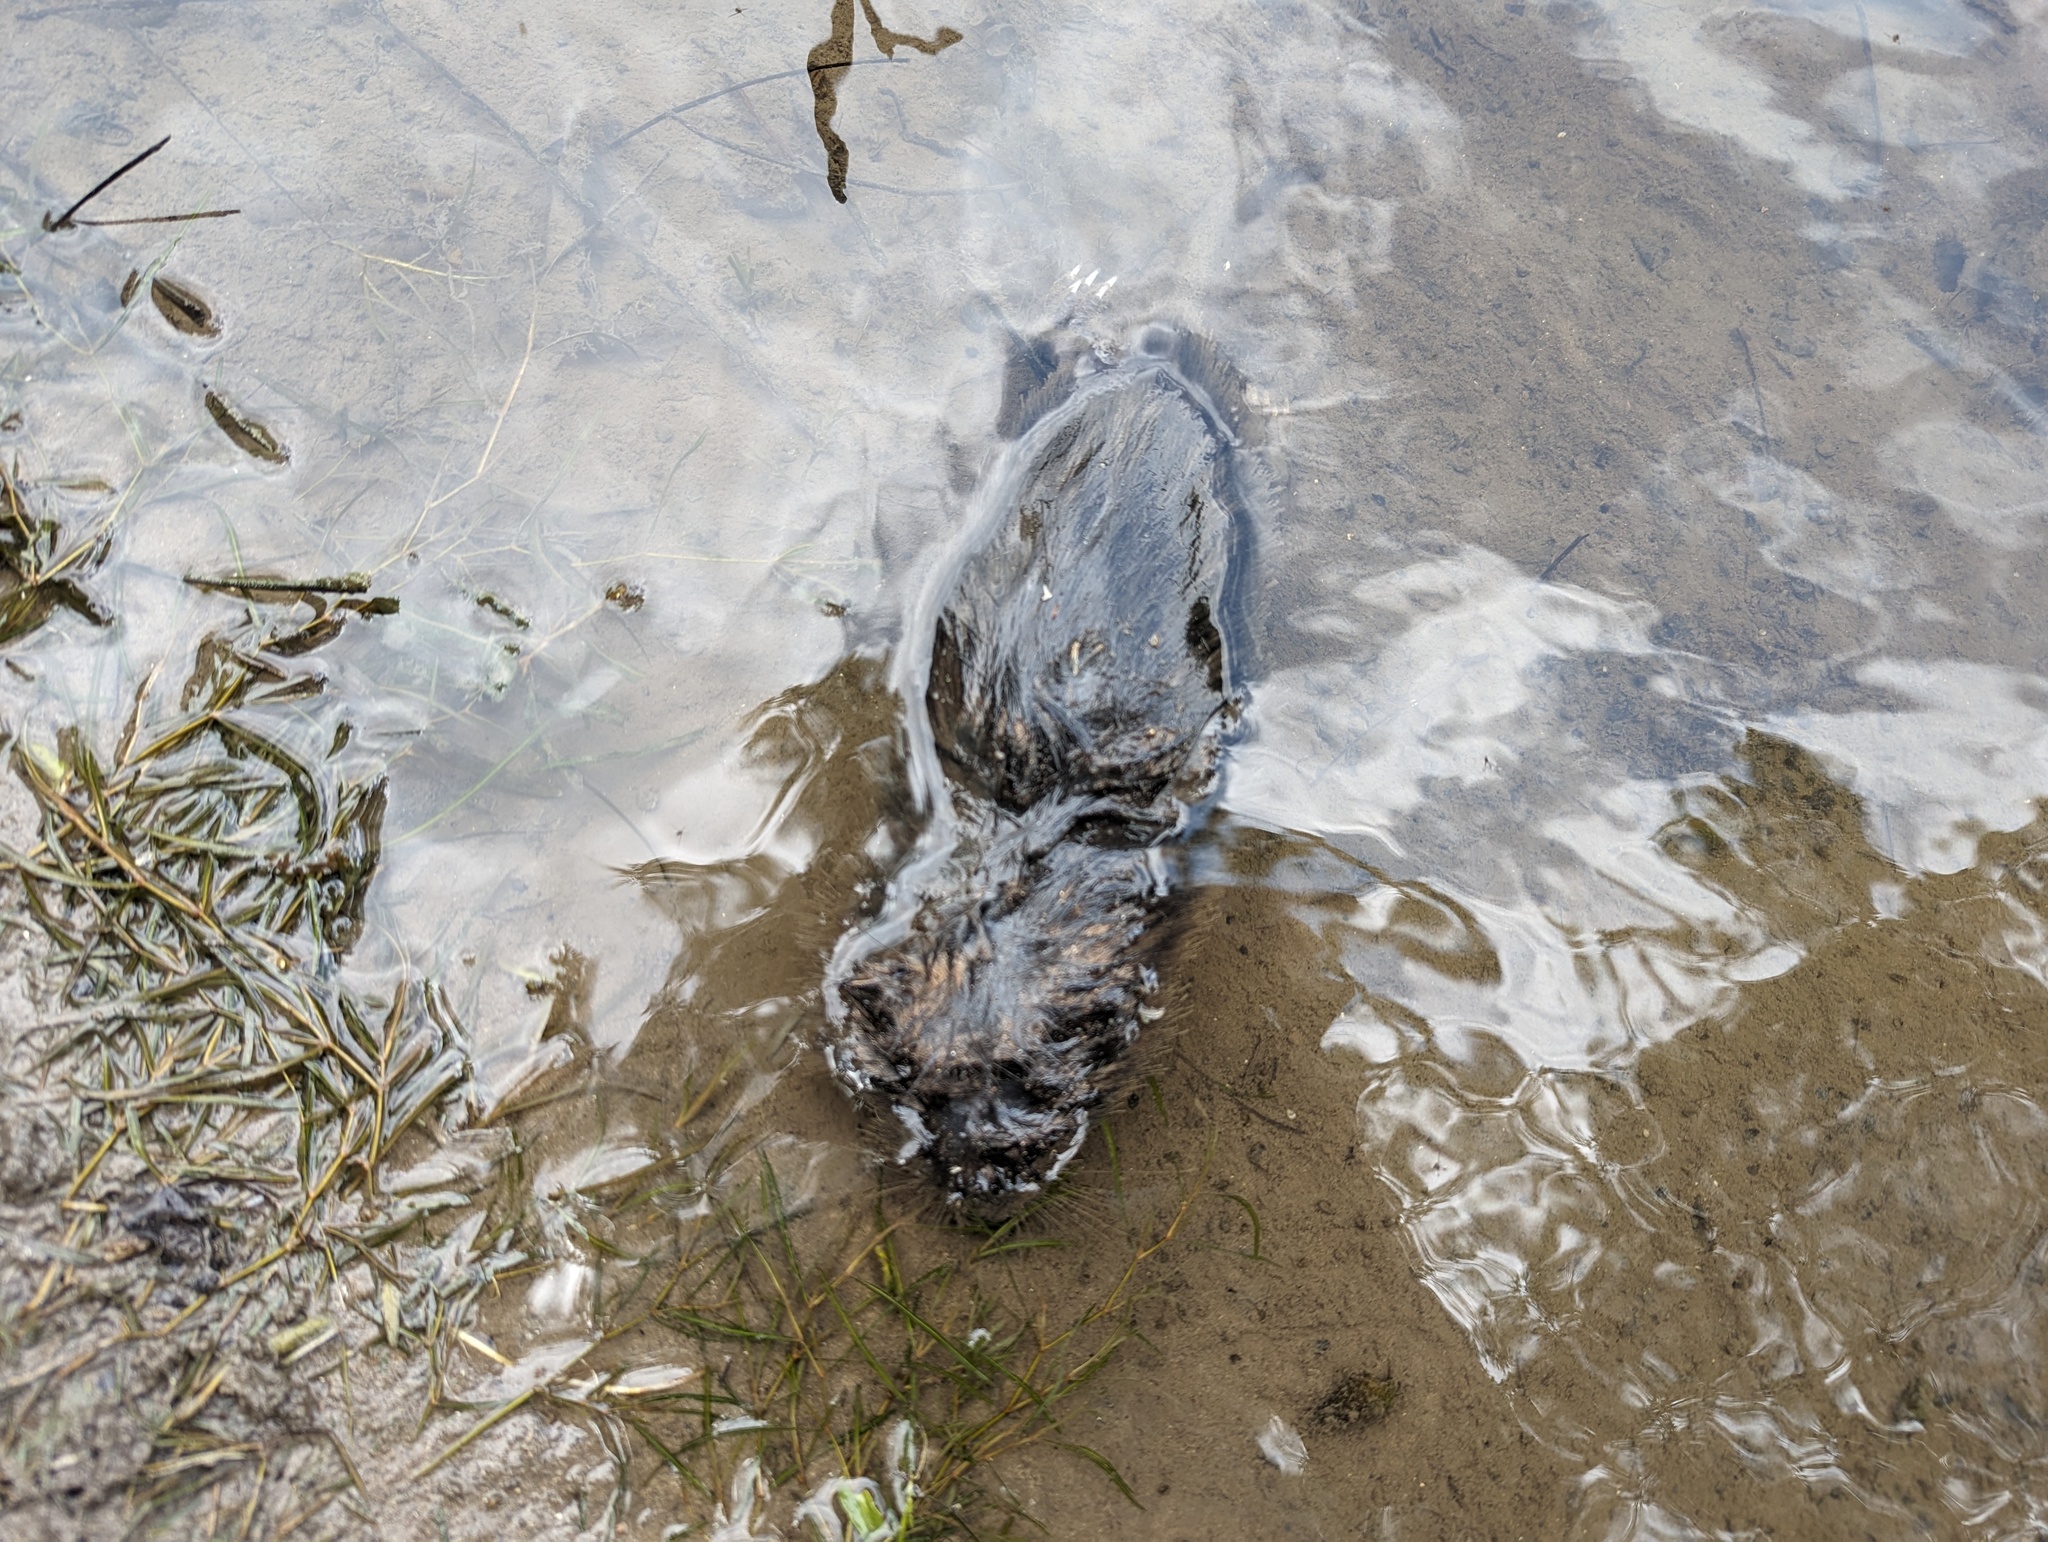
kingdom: Animalia
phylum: Chordata
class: Mammalia
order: Rodentia
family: Cricetidae
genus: Ondatra
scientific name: Ondatra zibethicus
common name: Muskrat
